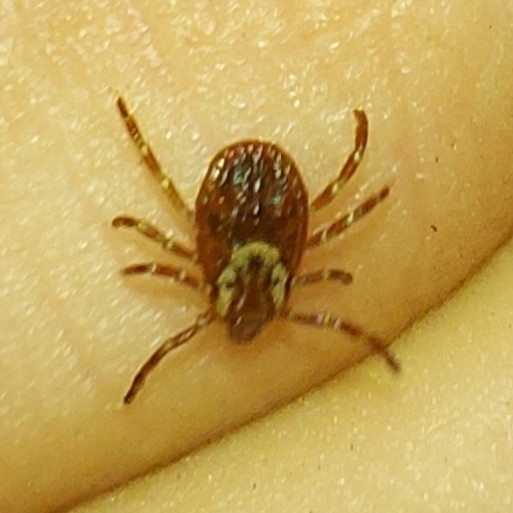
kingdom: Animalia
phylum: Arthropoda
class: Arachnida
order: Ixodida
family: Ixodidae
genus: Dermacentor
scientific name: Dermacentor variabilis
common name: American dog tick
